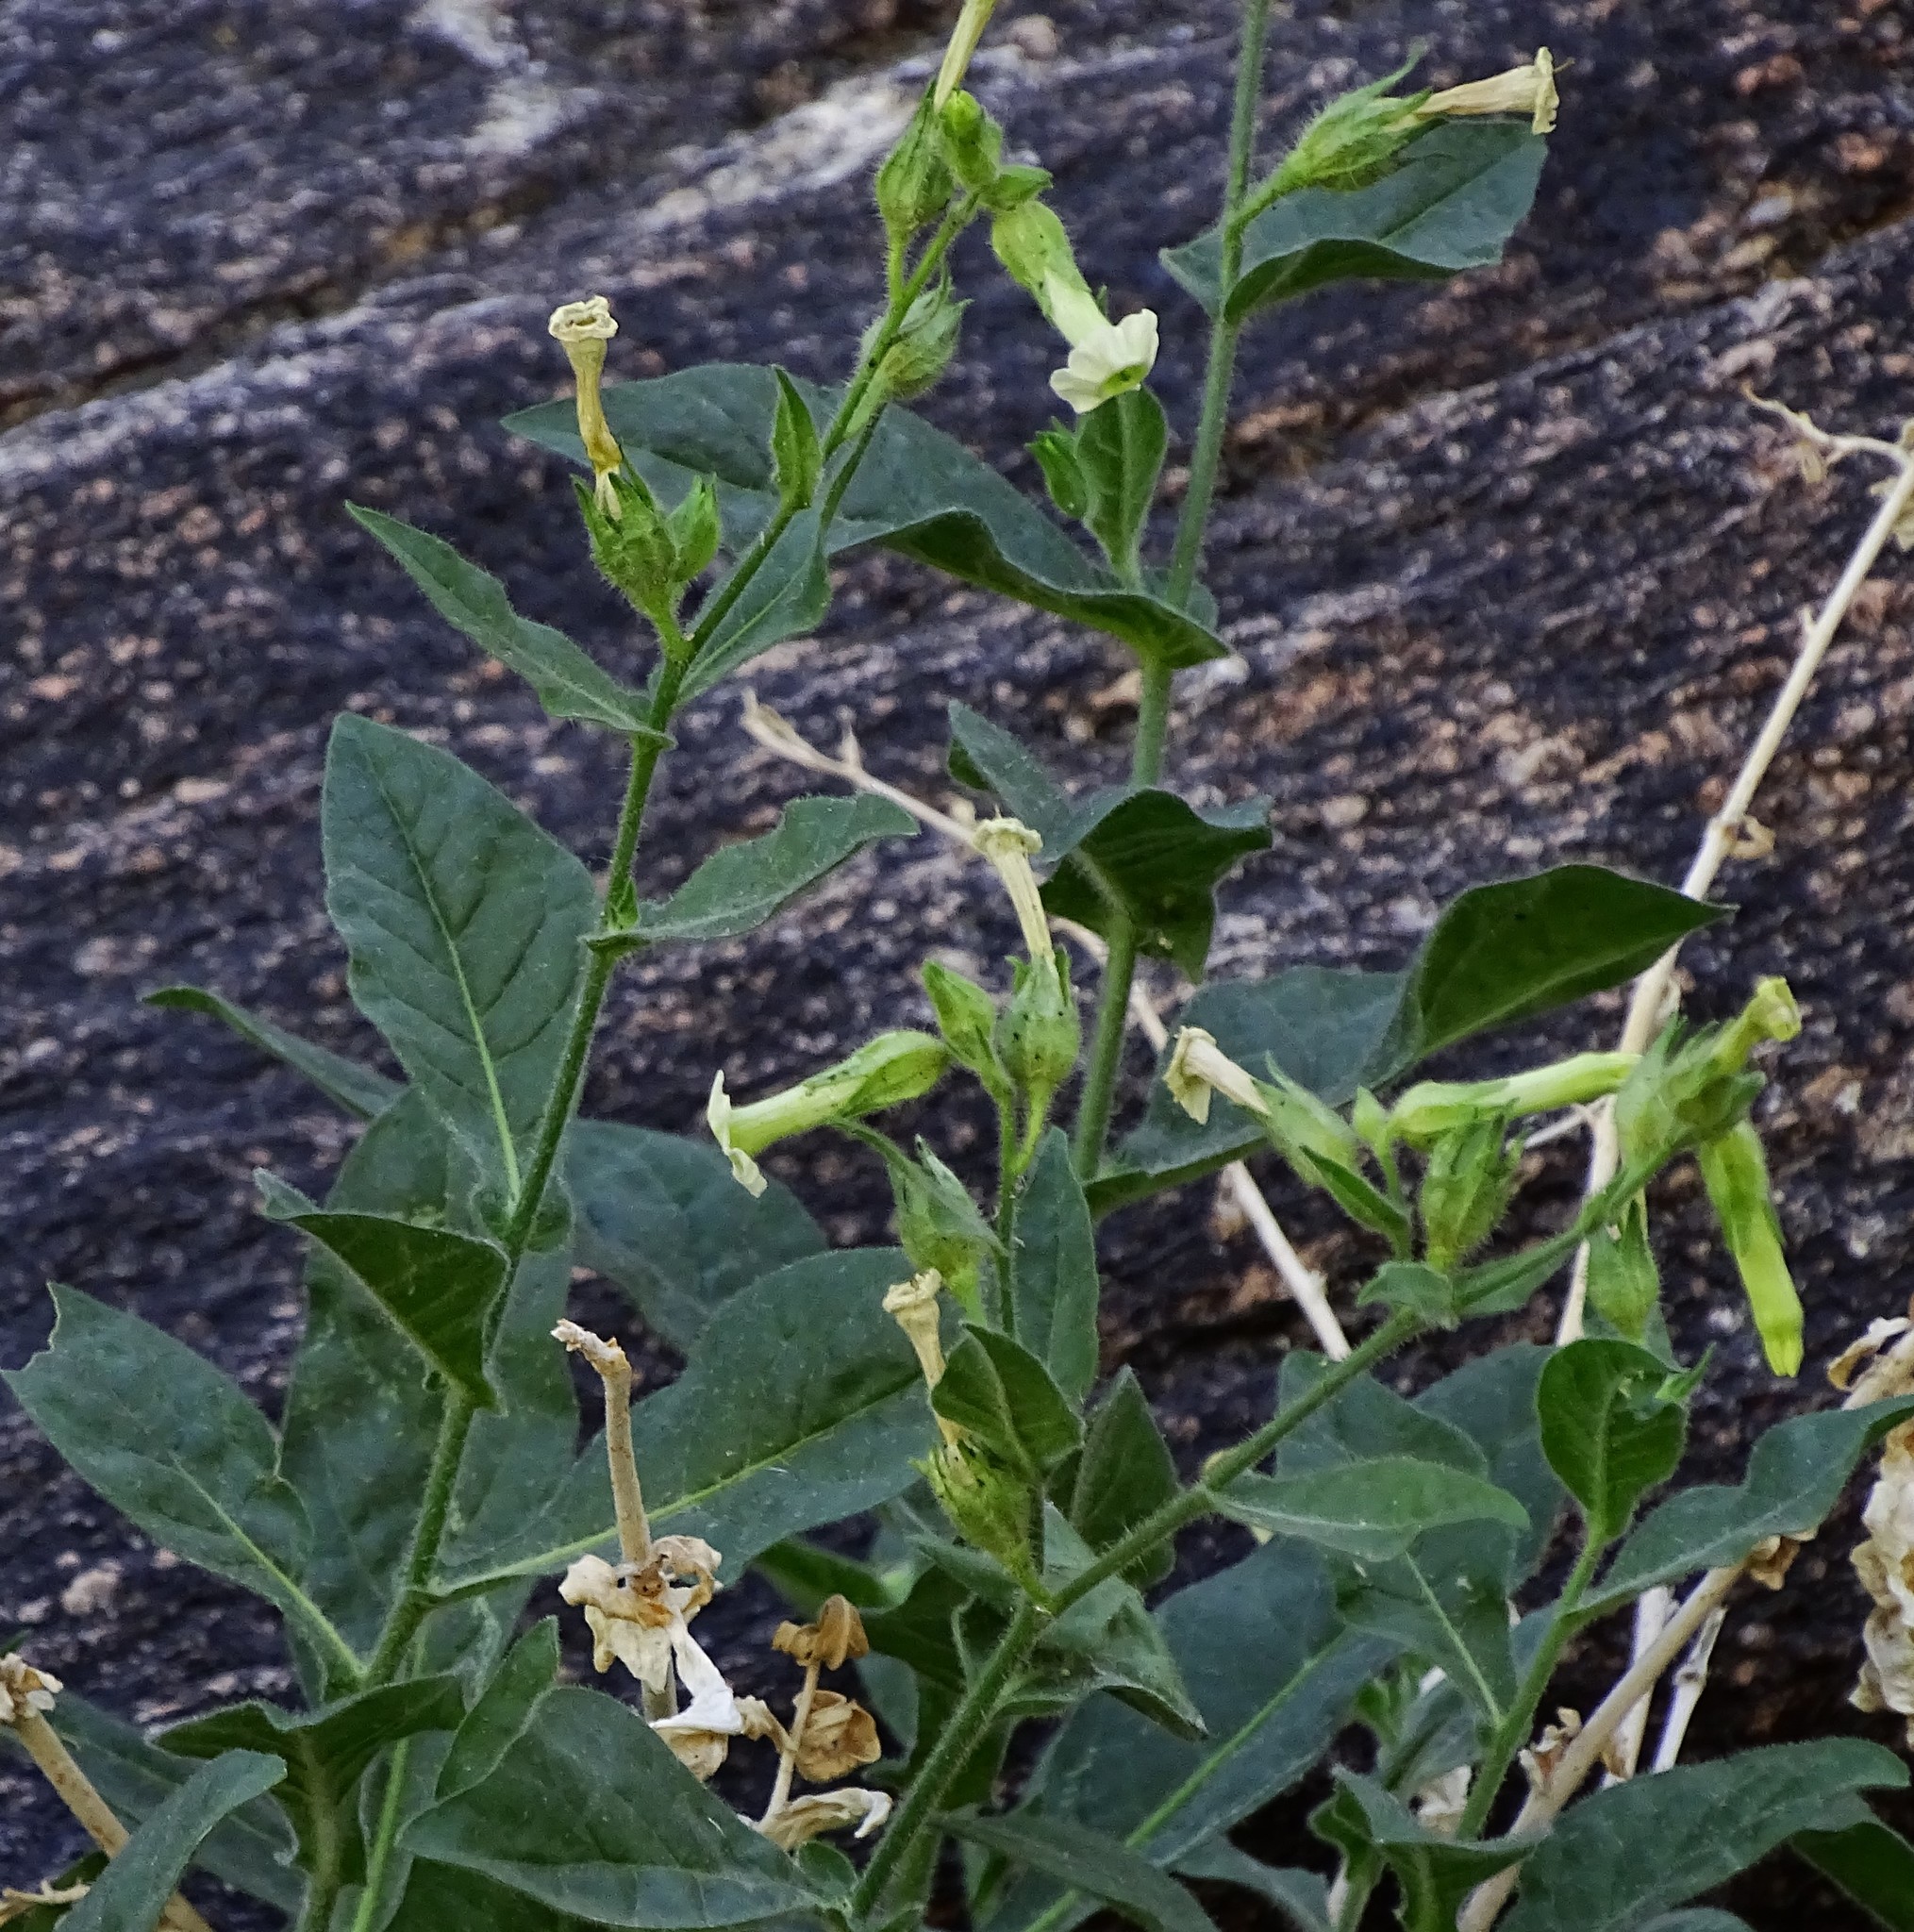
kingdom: Plantae
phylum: Tracheophyta
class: Magnoliopsida
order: Solanales
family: Solanaceae
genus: Nicotiana
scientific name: Nicotiana obtusifolia
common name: Desert tobacco
